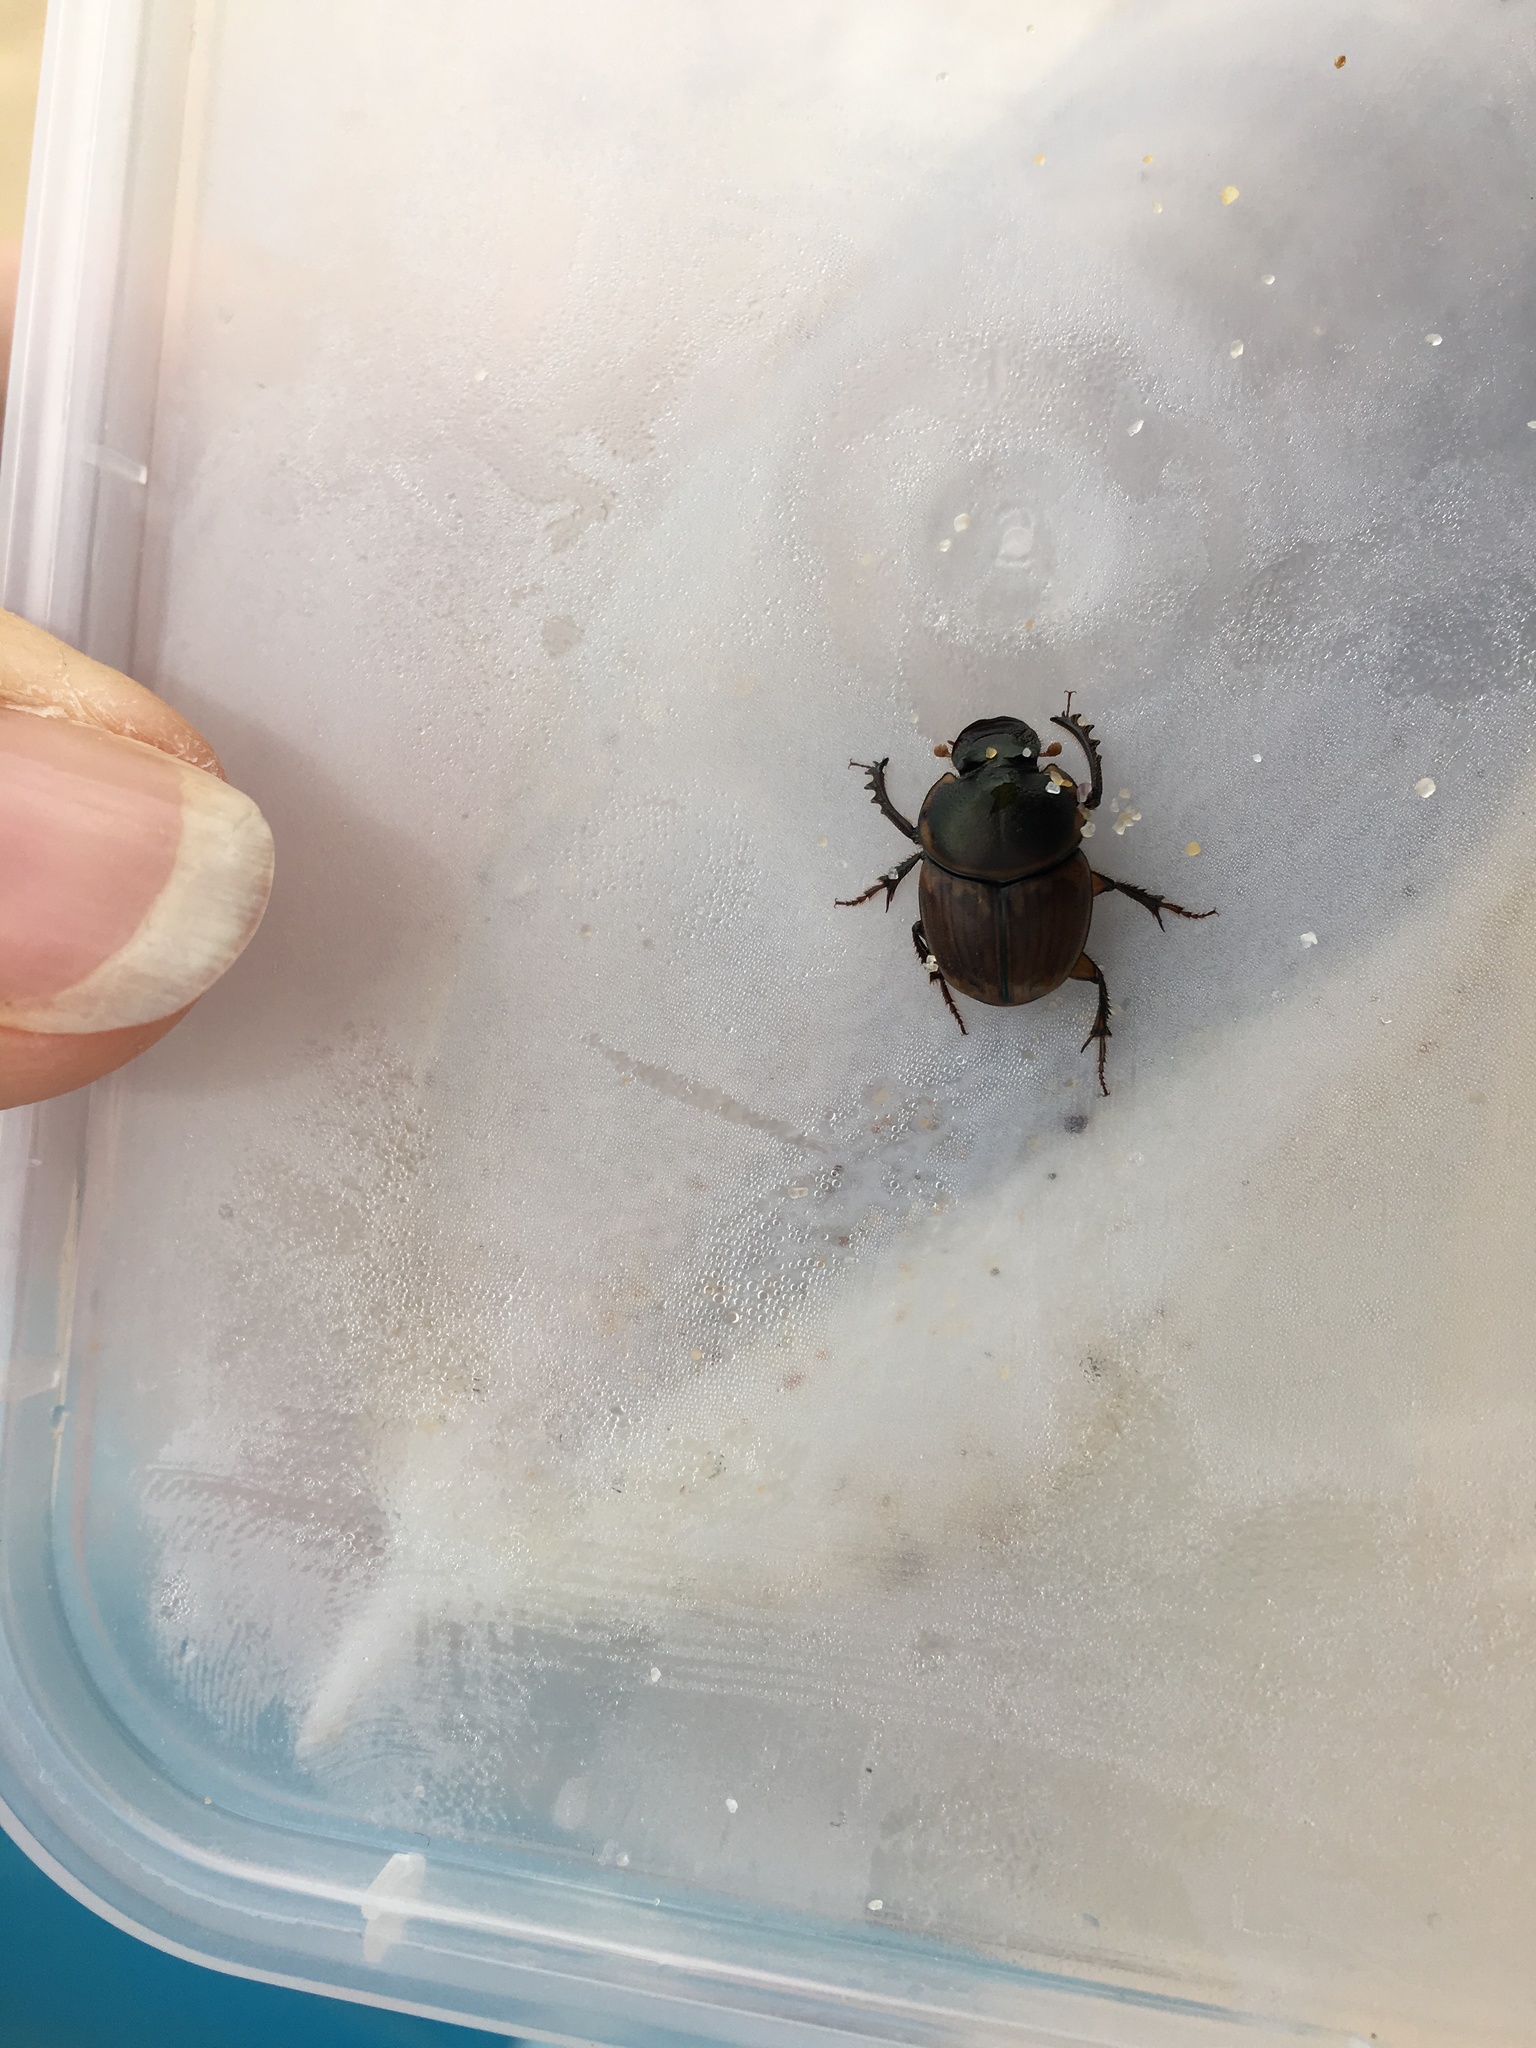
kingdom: Animalia
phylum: Arthropoda
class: Insecta
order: Coleoptera
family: Scarabaeidae
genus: Digitonthophagus
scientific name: Digitonthophagus gazella
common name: Brown dung beetle
